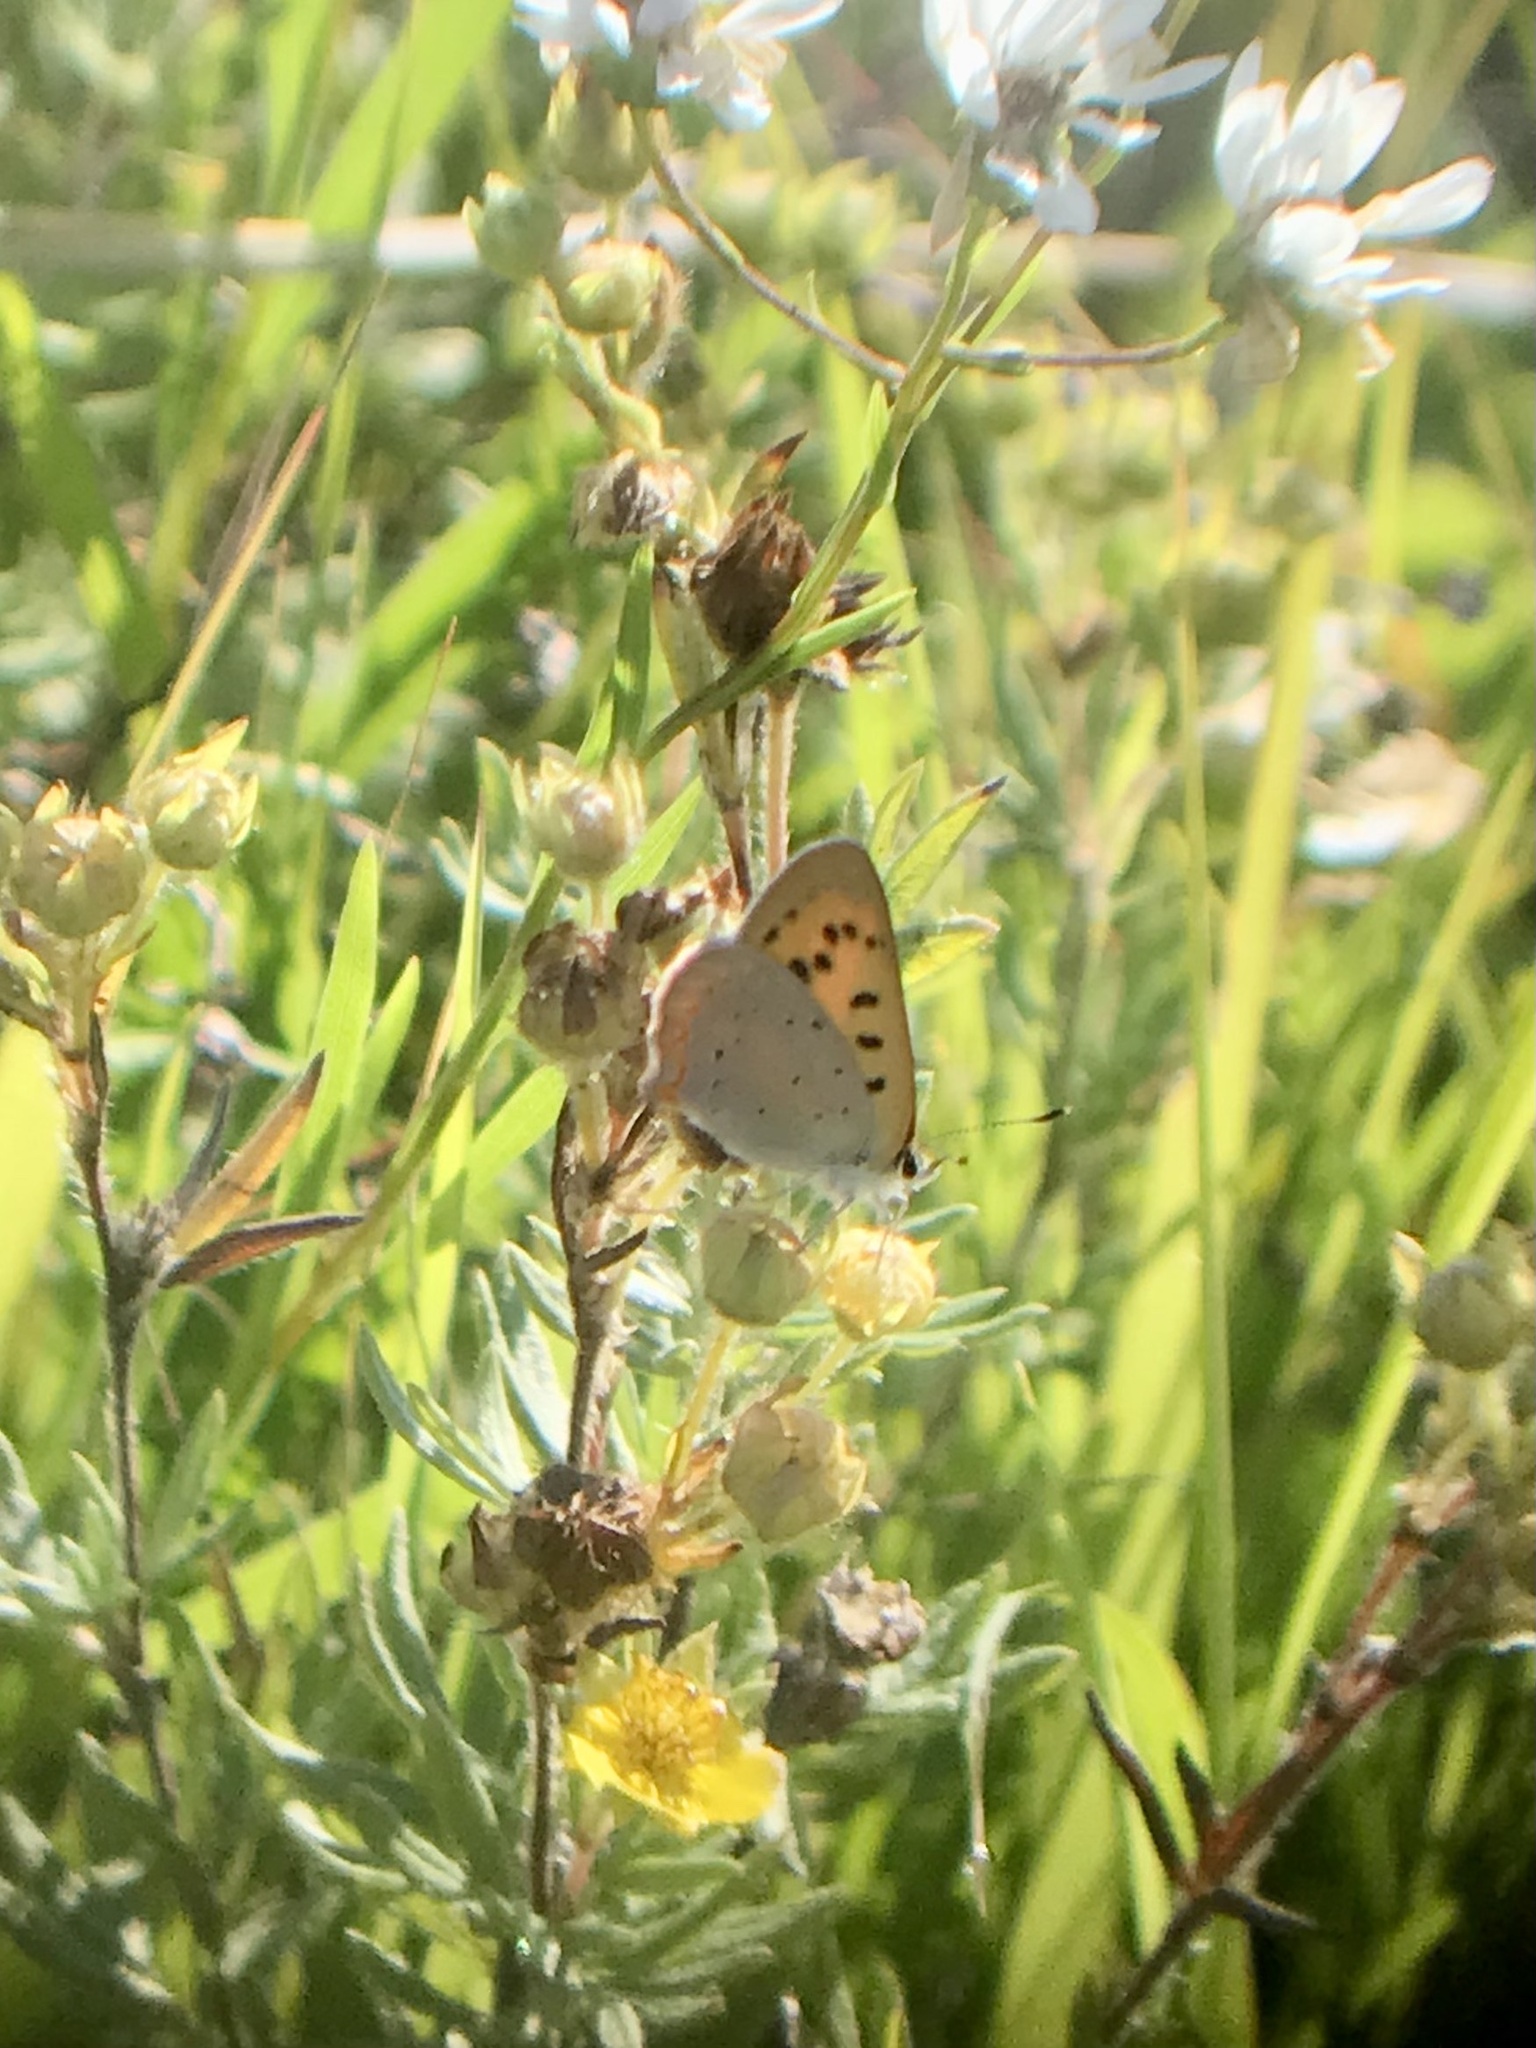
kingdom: Animalia
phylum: Arthropoda
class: Insecta
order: Lepidoptera
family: Lycaenidae
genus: Tharsalea
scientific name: Tharsalea helloides
